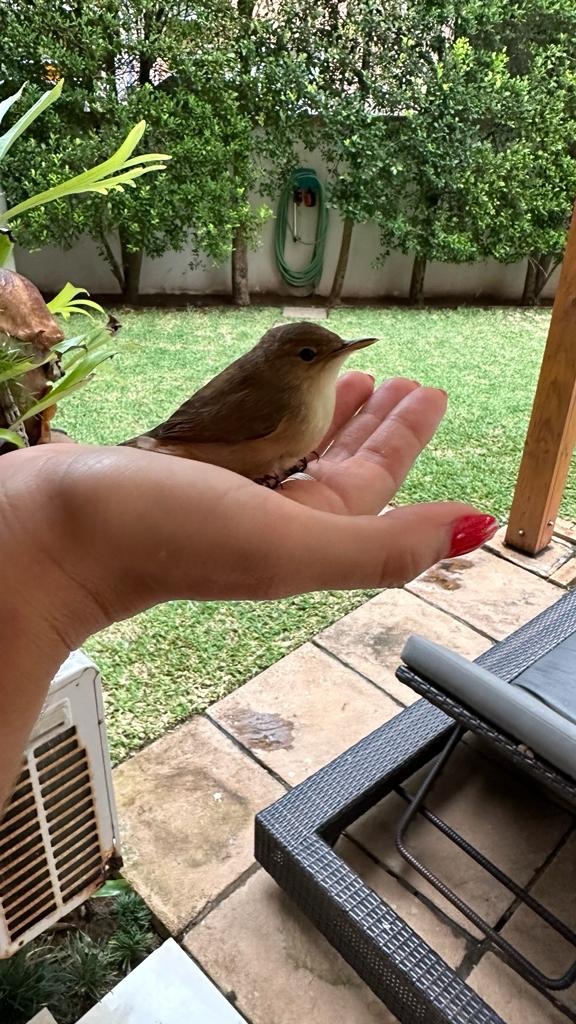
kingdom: Animalia
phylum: Chordata
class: Aves
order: Passeriformes
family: Acrocephalidae
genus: Acrocephalus
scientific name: Acrocephalus scirpaceus
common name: Eurasian reed warbler
